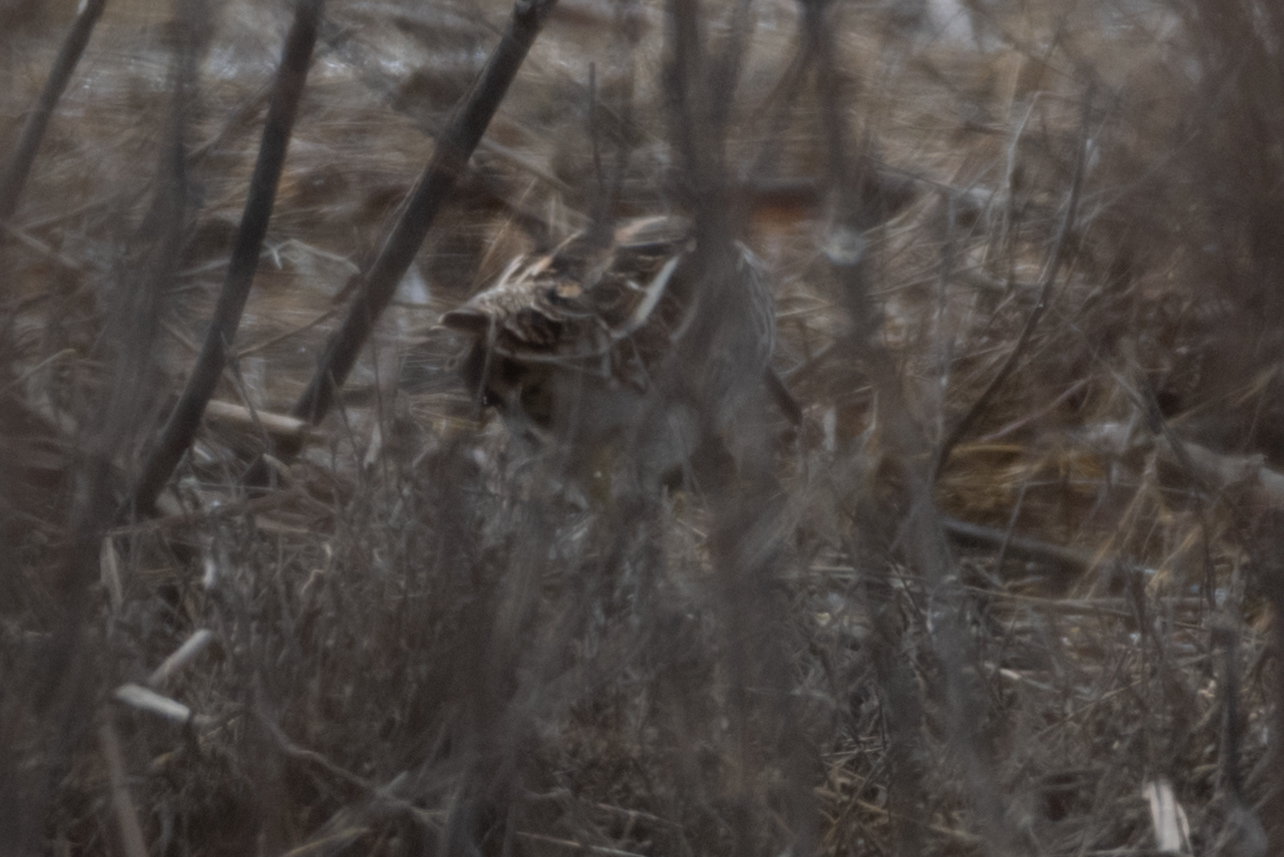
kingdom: Animalia
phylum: Chordata
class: Aves
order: Charadriiformes
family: Scolopacidae
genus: Gallinago
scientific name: Gallinago delicata
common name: Wilson's snipe
